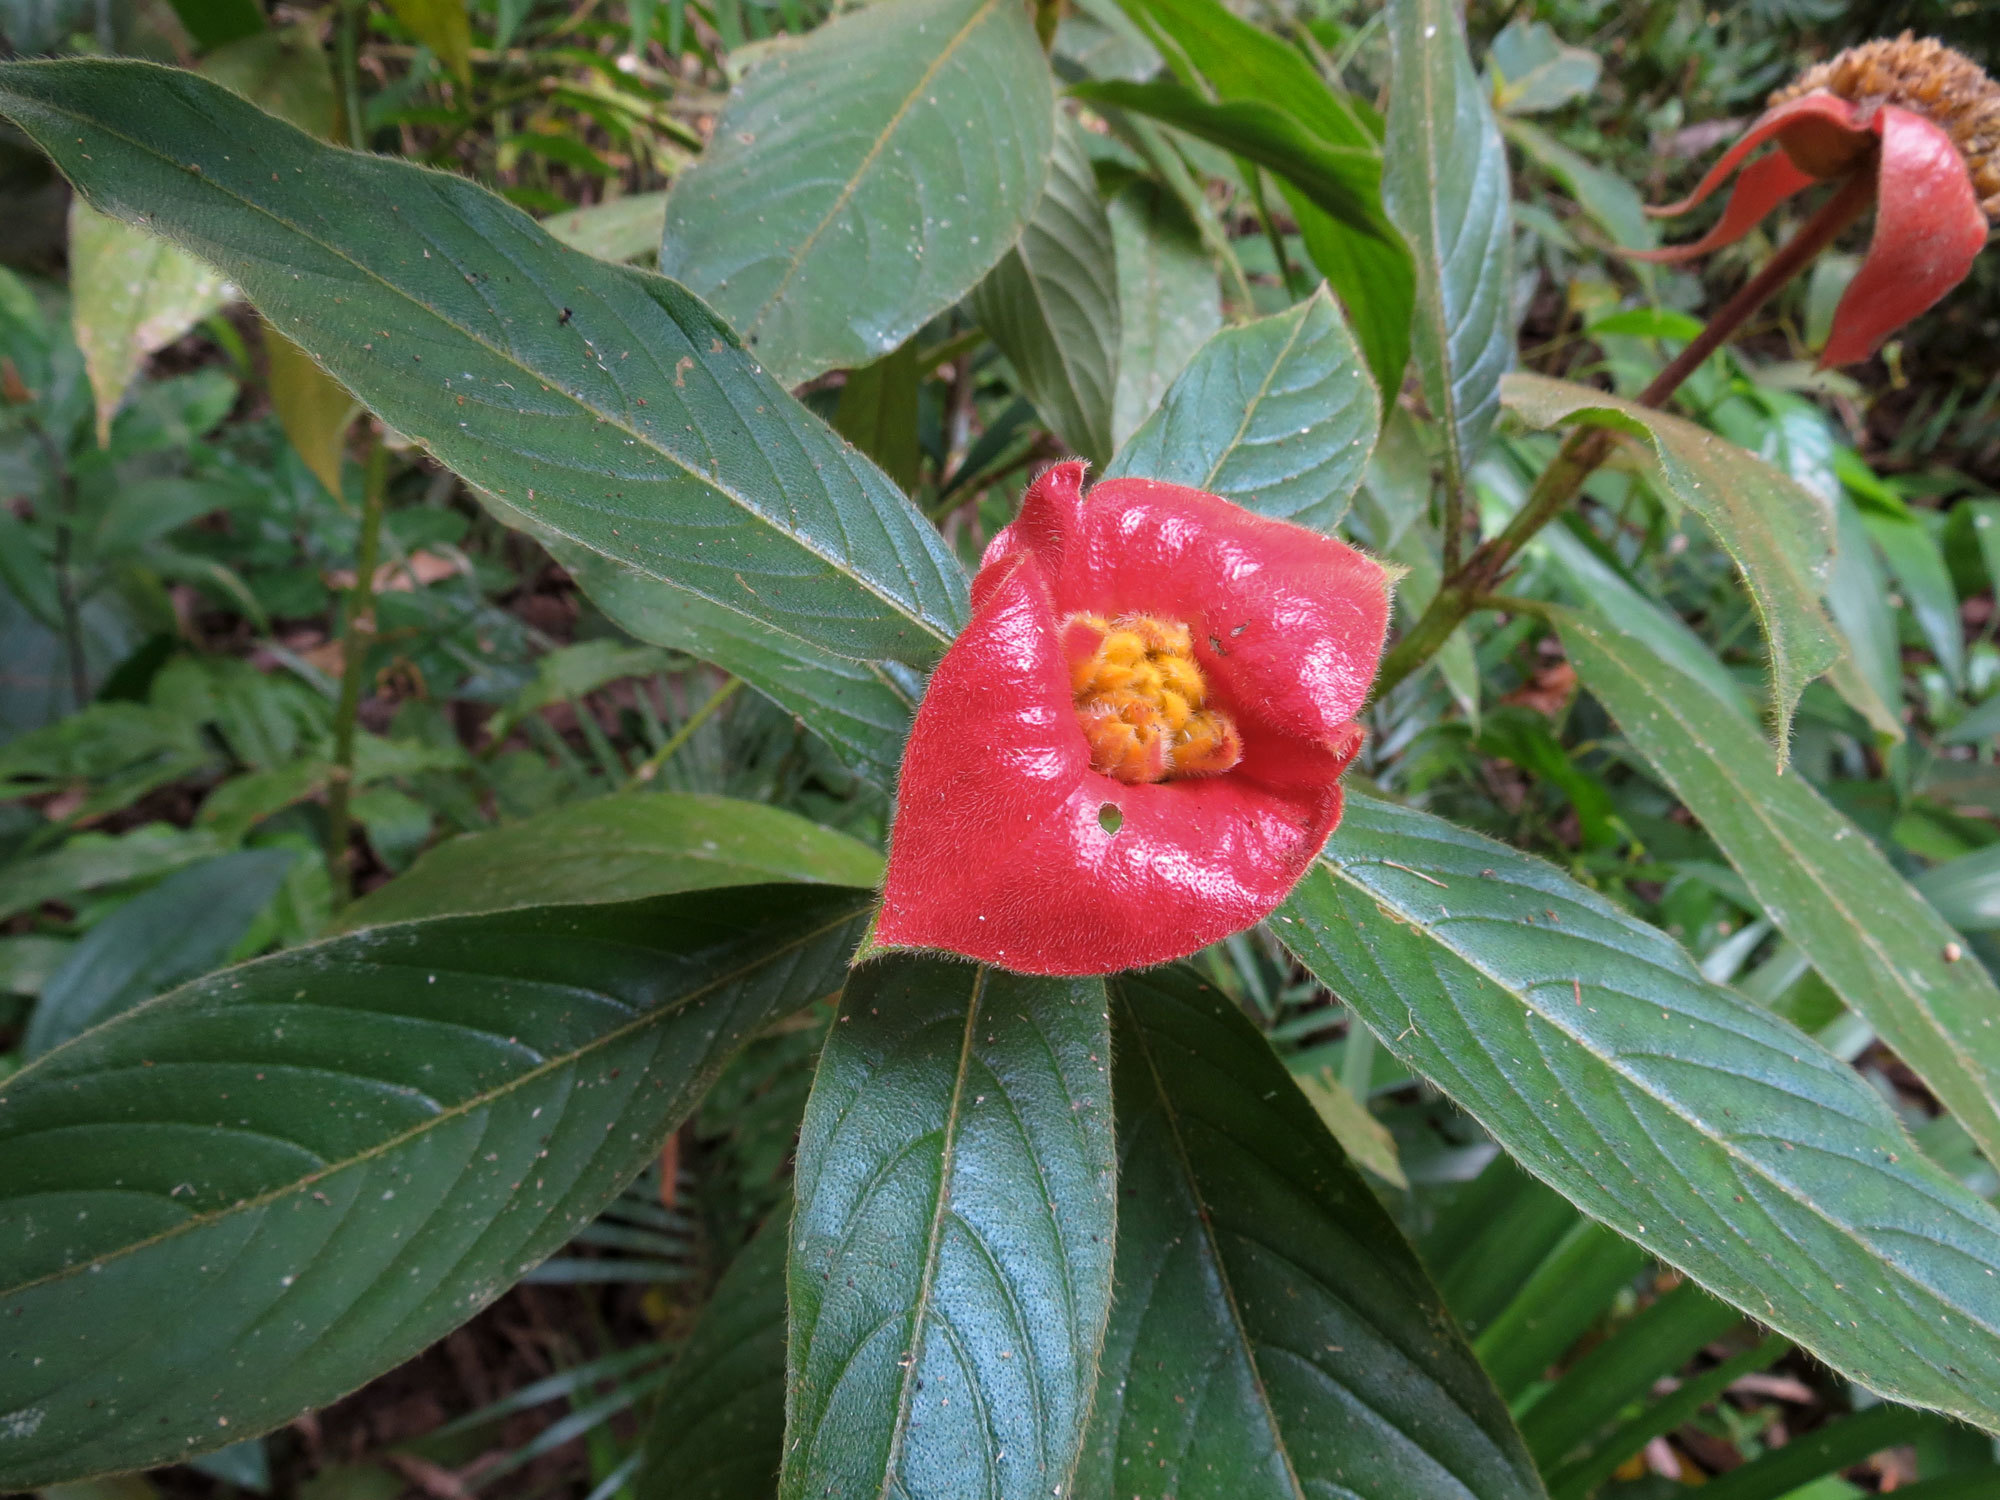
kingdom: Plantae
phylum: Tracheophyta
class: Magnoliopsida
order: Gentianales
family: Rubiaceae
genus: Palicourea
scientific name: Palicourea tomentosa
